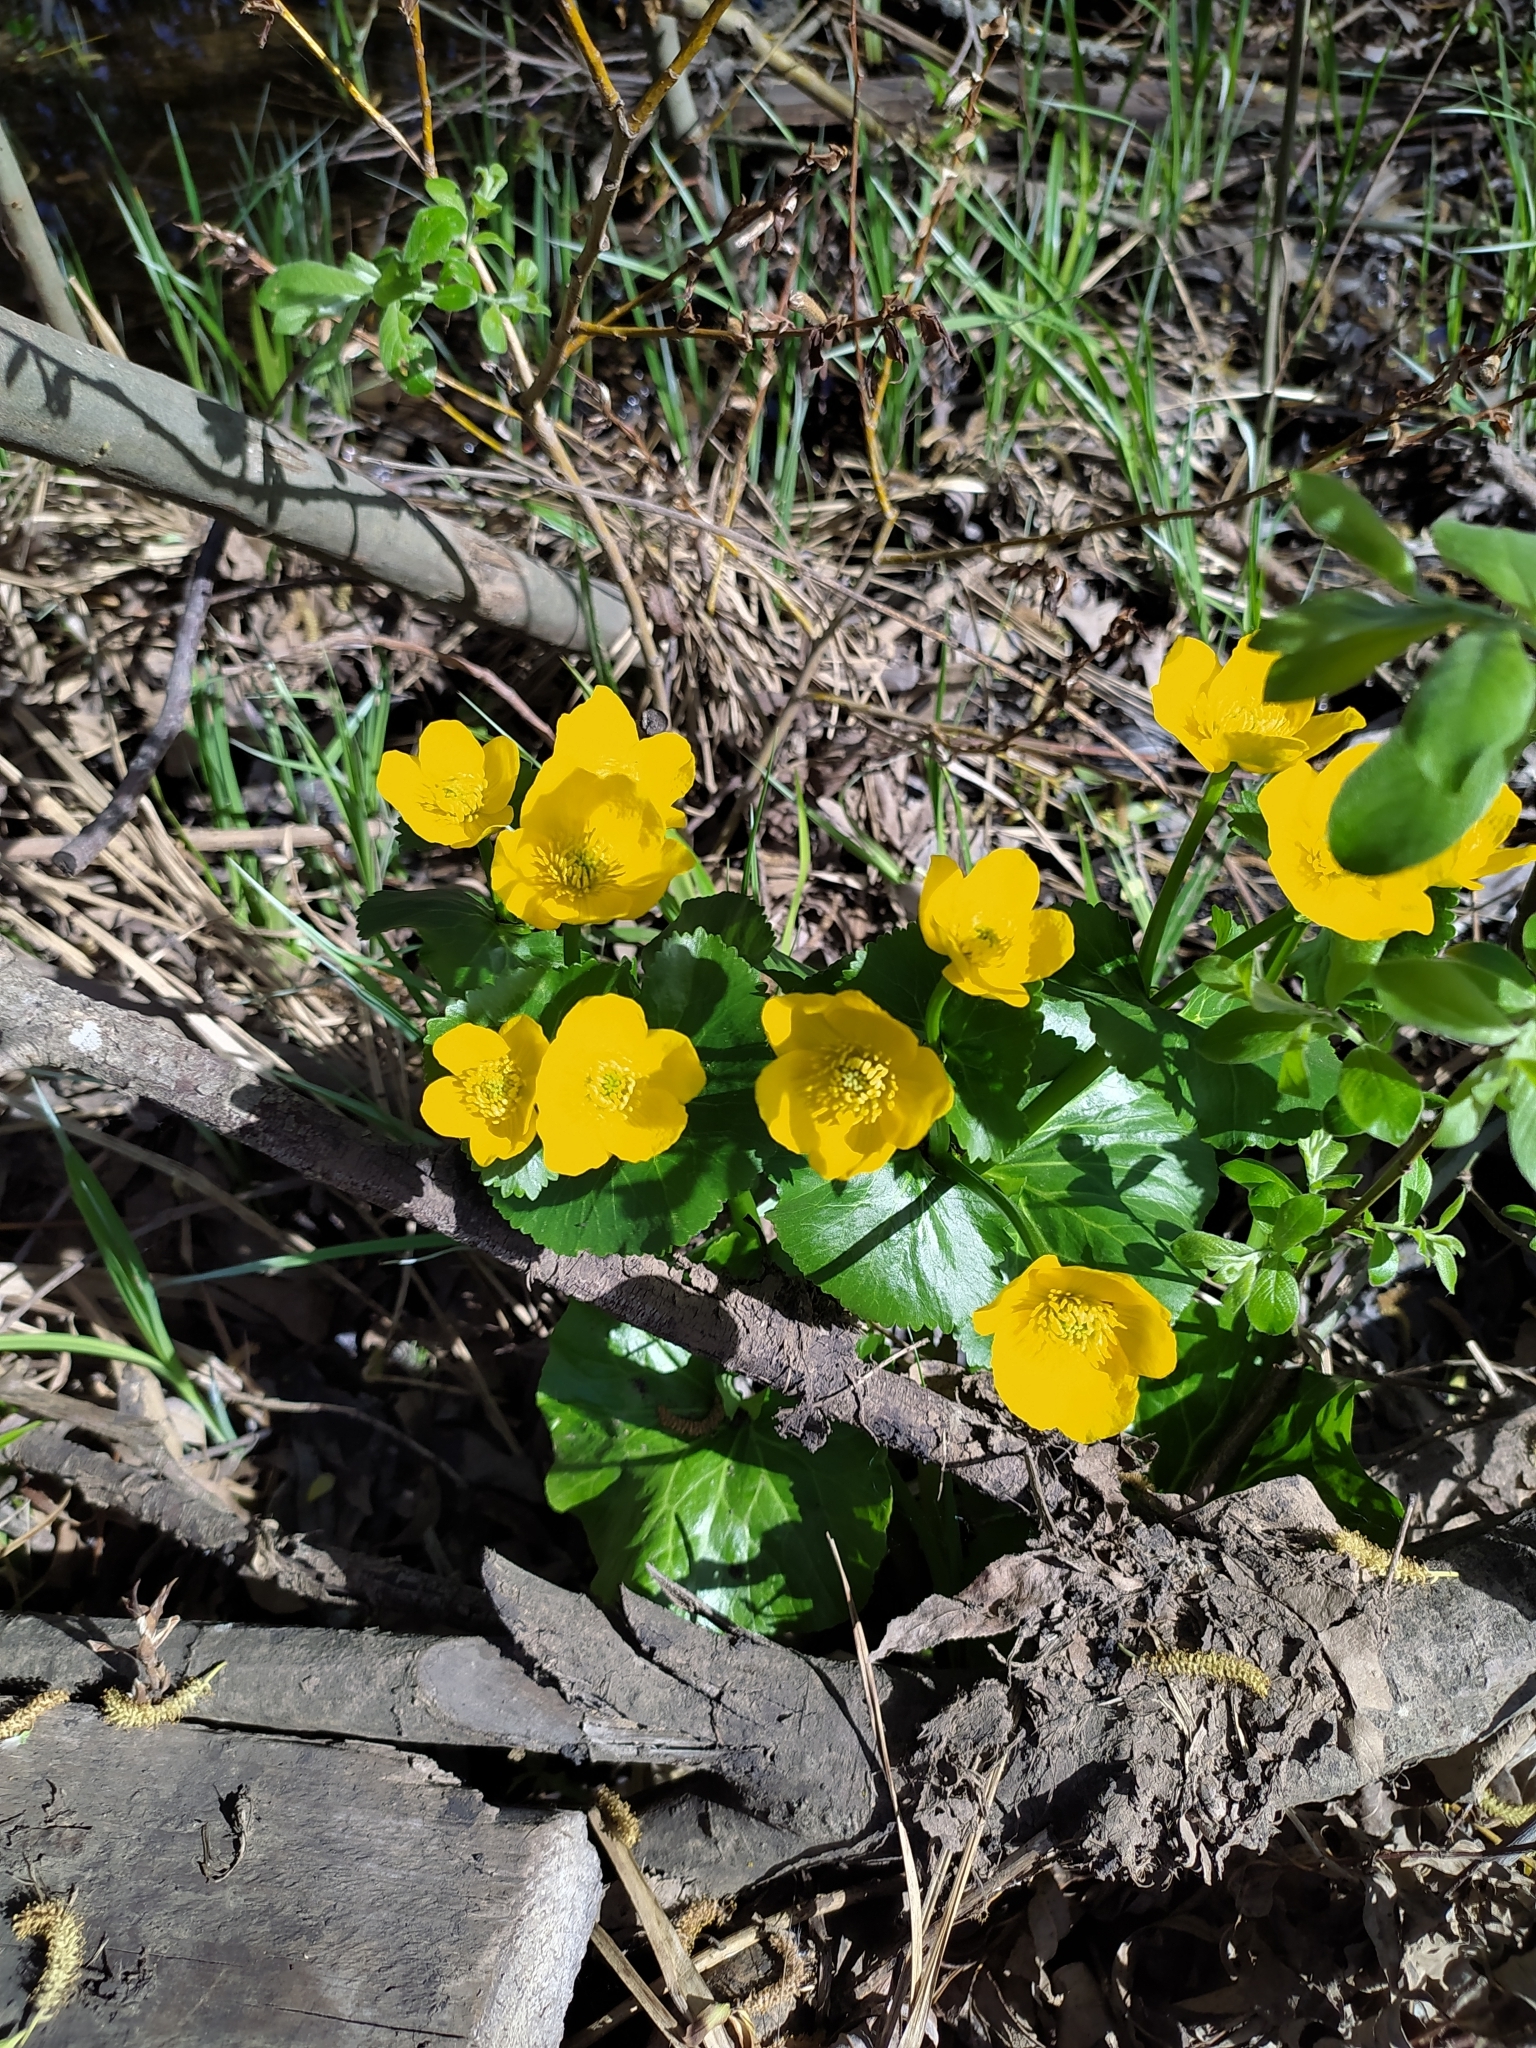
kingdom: Plantae
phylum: Tracheophyta
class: Magnoliopsida
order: Ranunculales
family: Ranunculaceae
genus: Caltha
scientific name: Caltha palustris
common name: Marsh marigold
